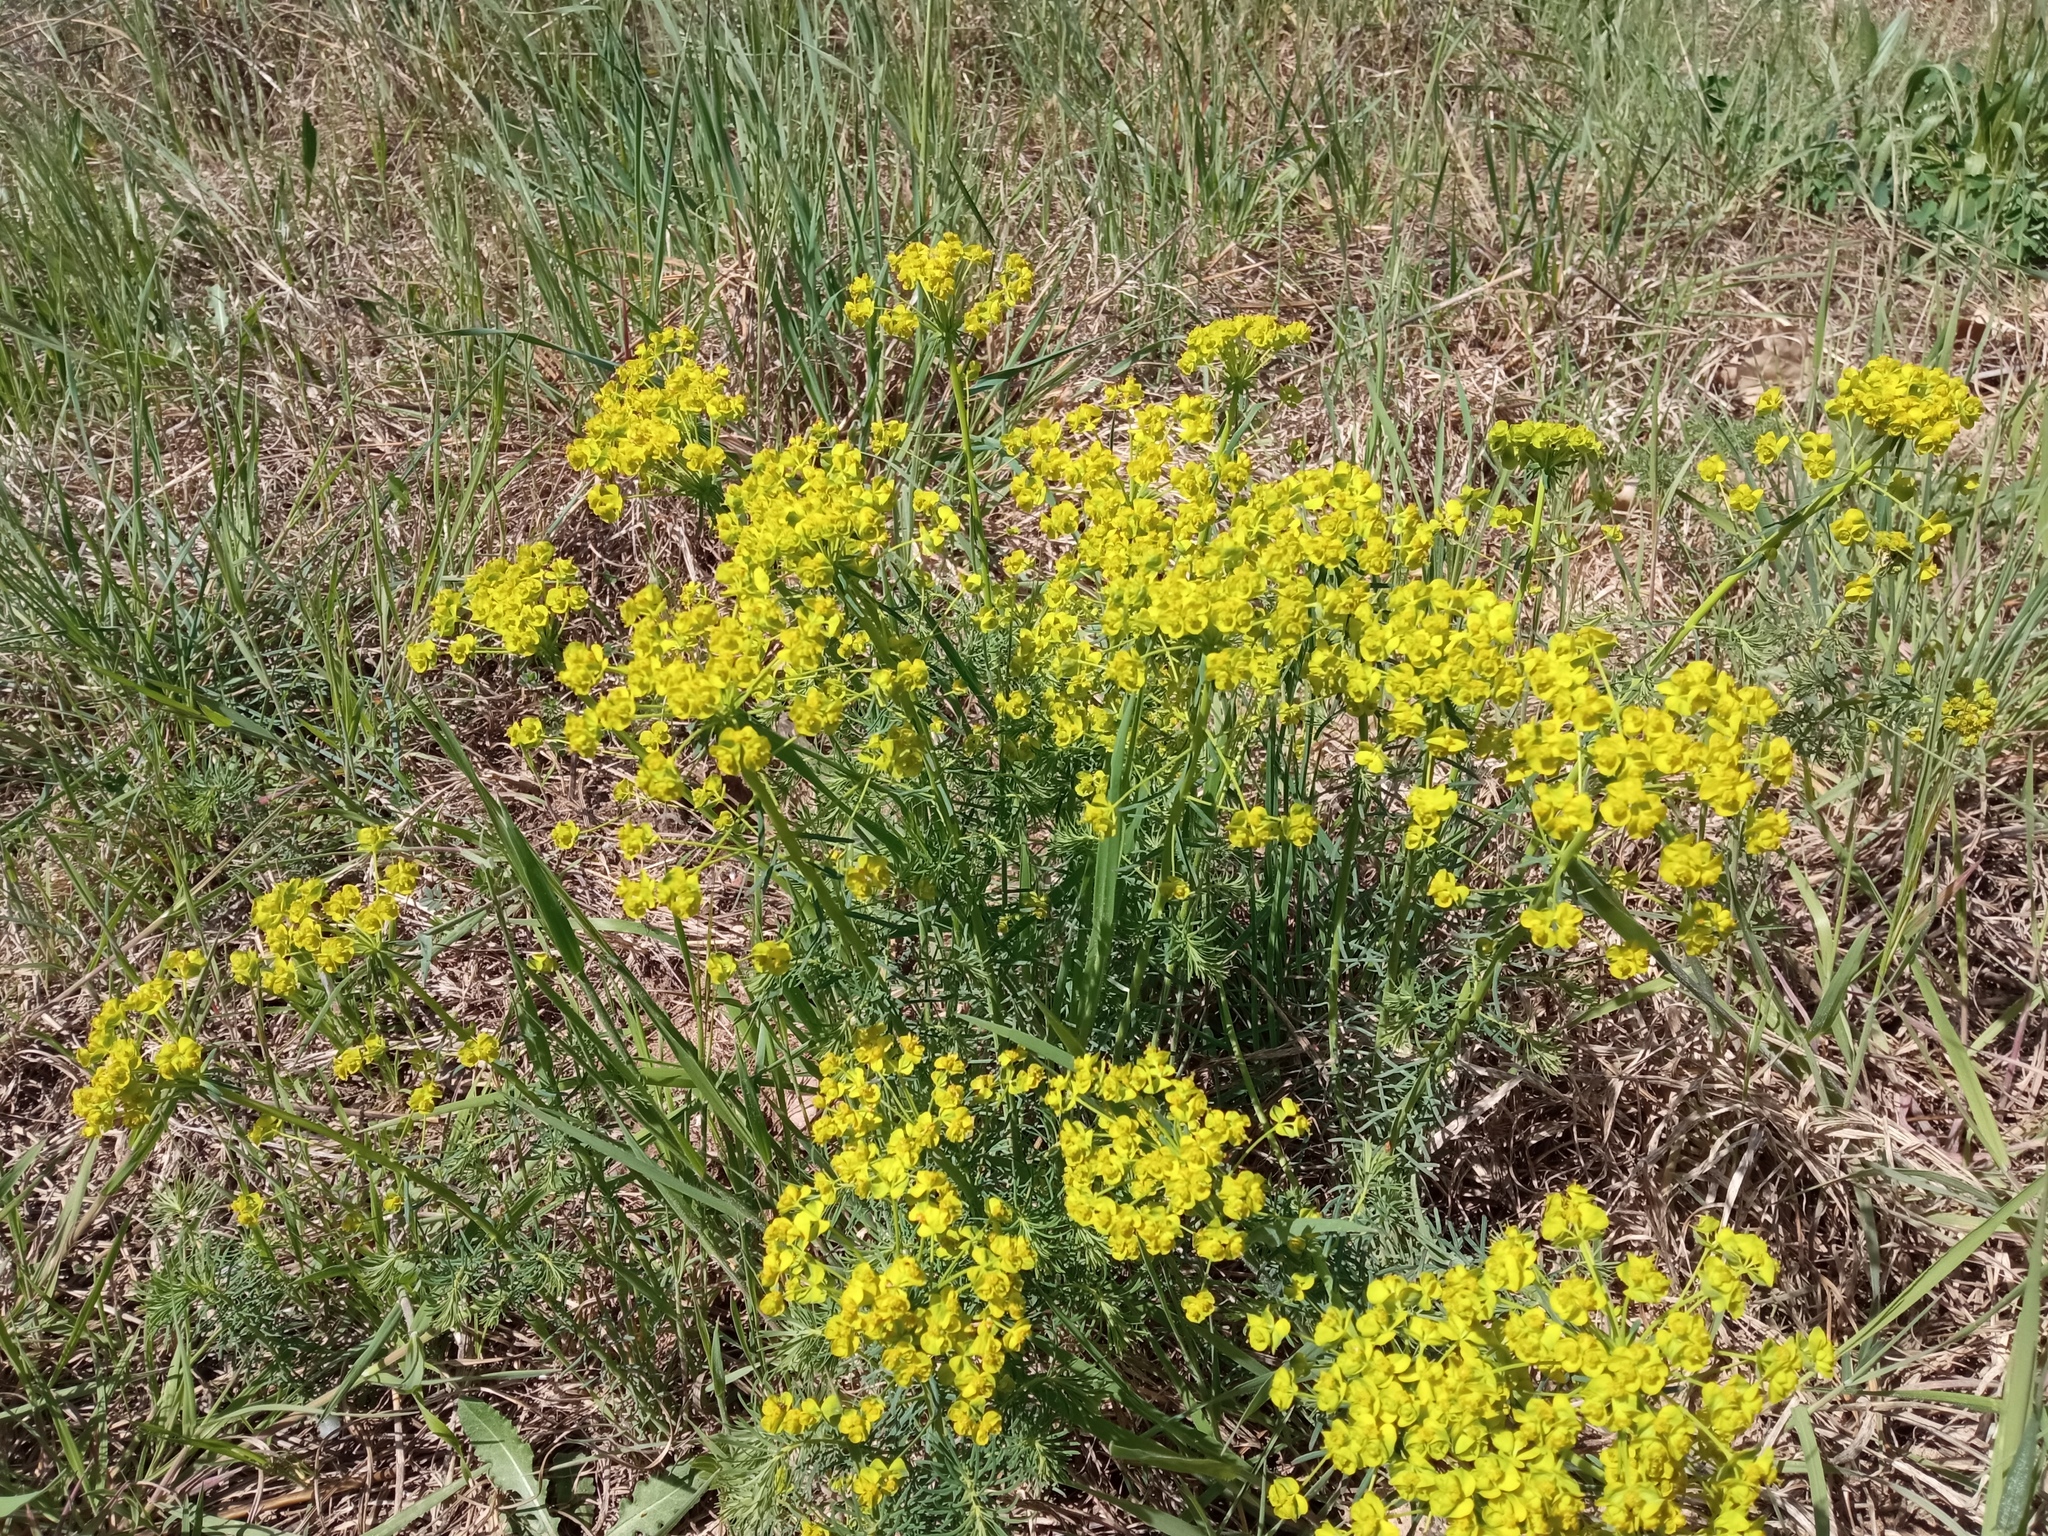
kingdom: Plantae
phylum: Tracheophyta
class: Magnoliopsida
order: Malpighiales
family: Euphorbiaceae
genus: Euphorbia
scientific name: Euphorbia cyparissias
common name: Cypress spurge
